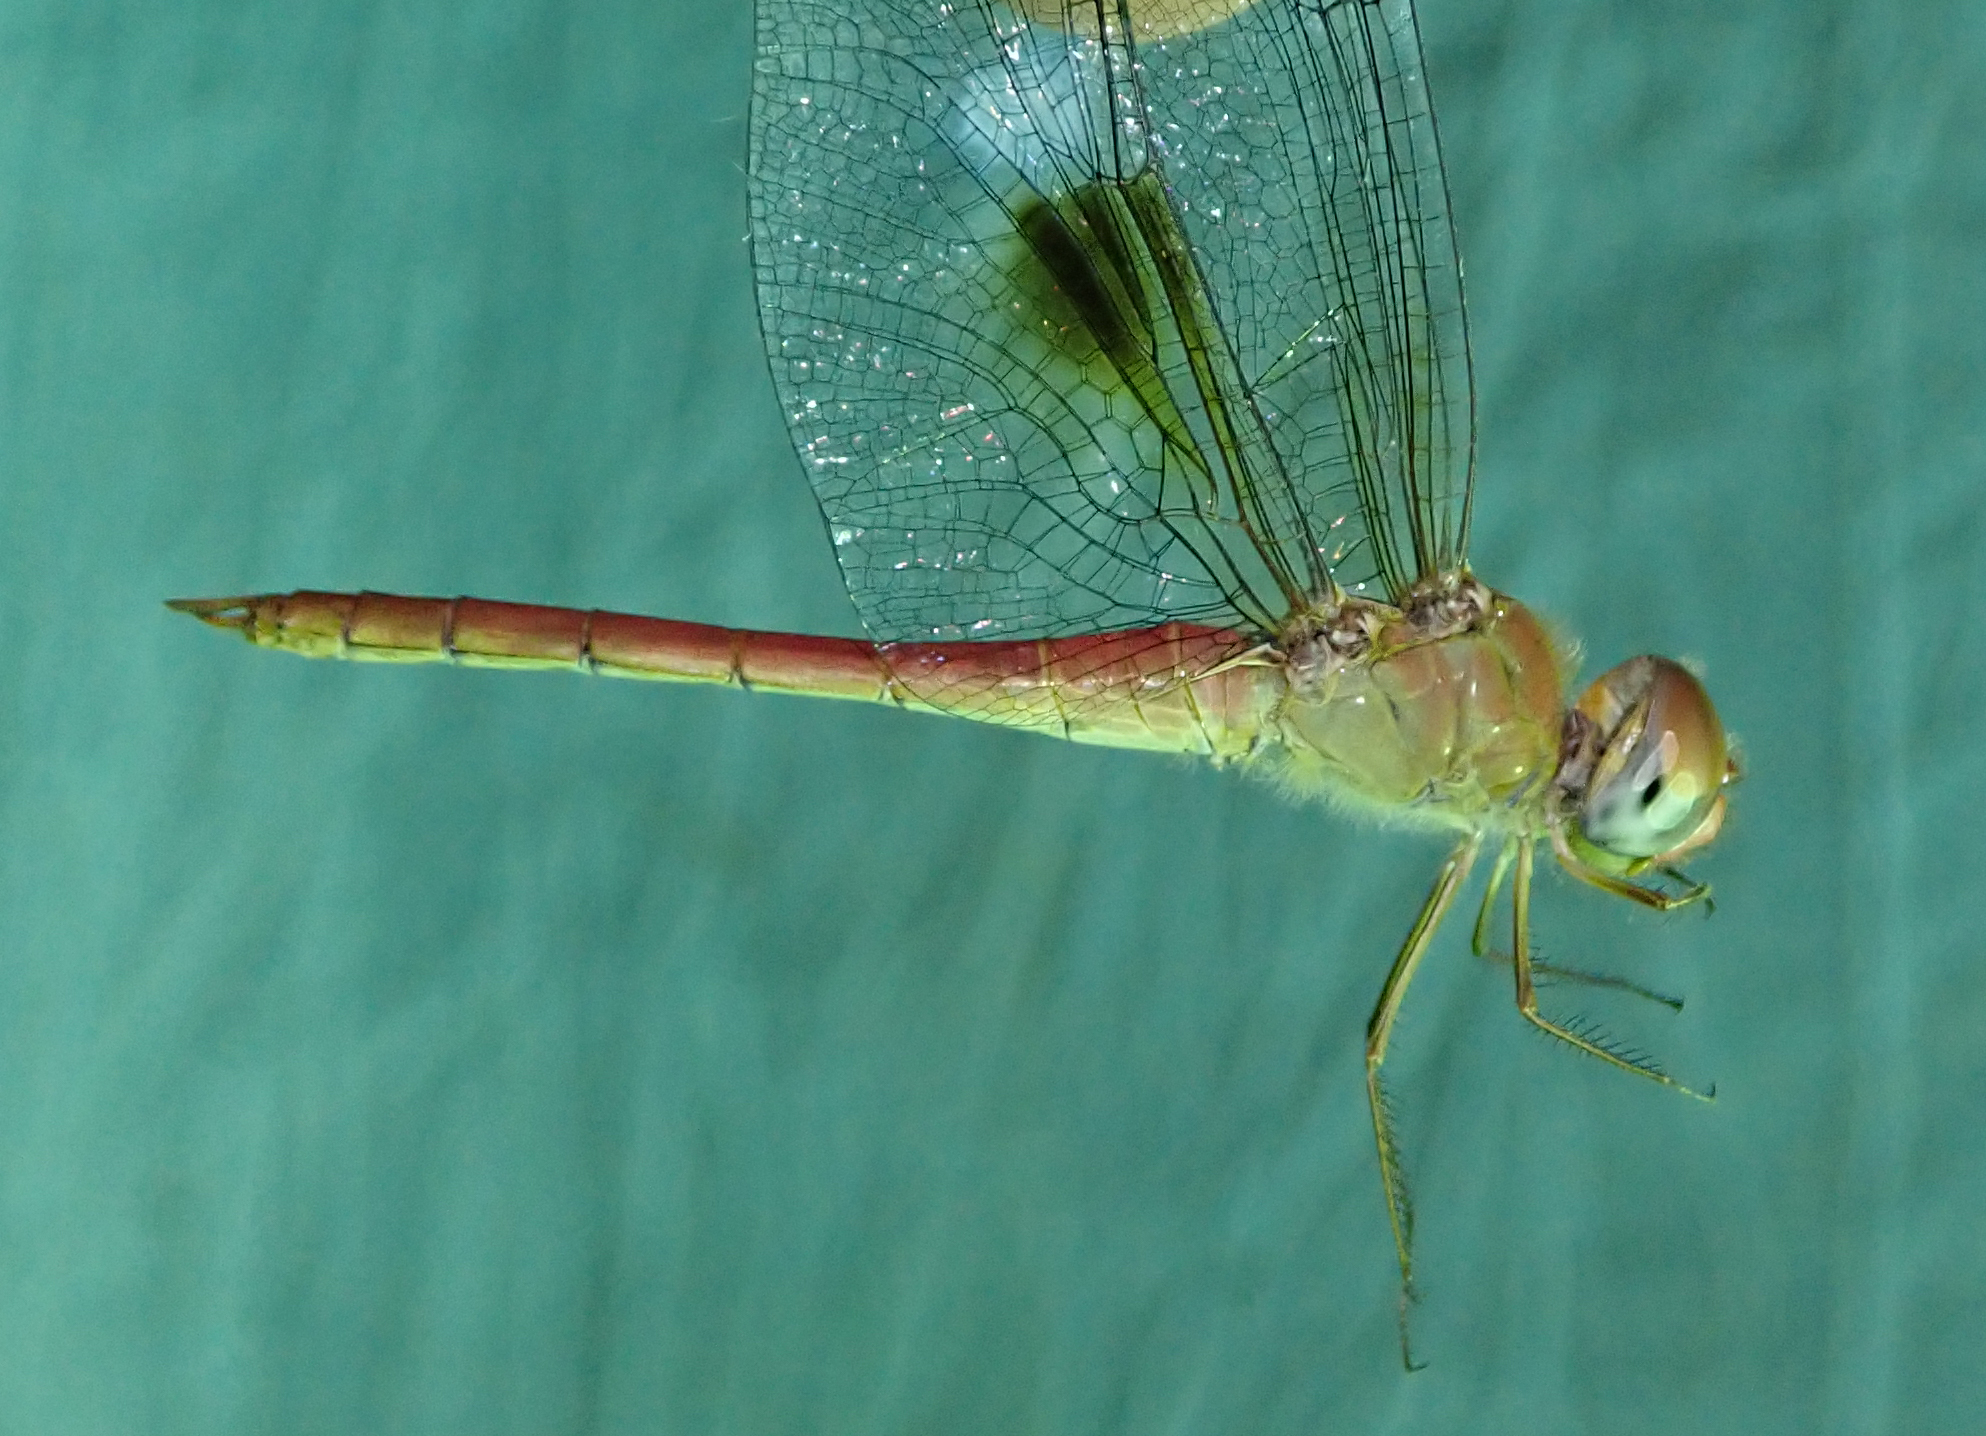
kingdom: Animalia
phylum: Arthropoda
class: Insecta
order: Odonata
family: Libellulidae
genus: Tholymis
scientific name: Tholymis tillarga
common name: Coral-tailed cloud wing
